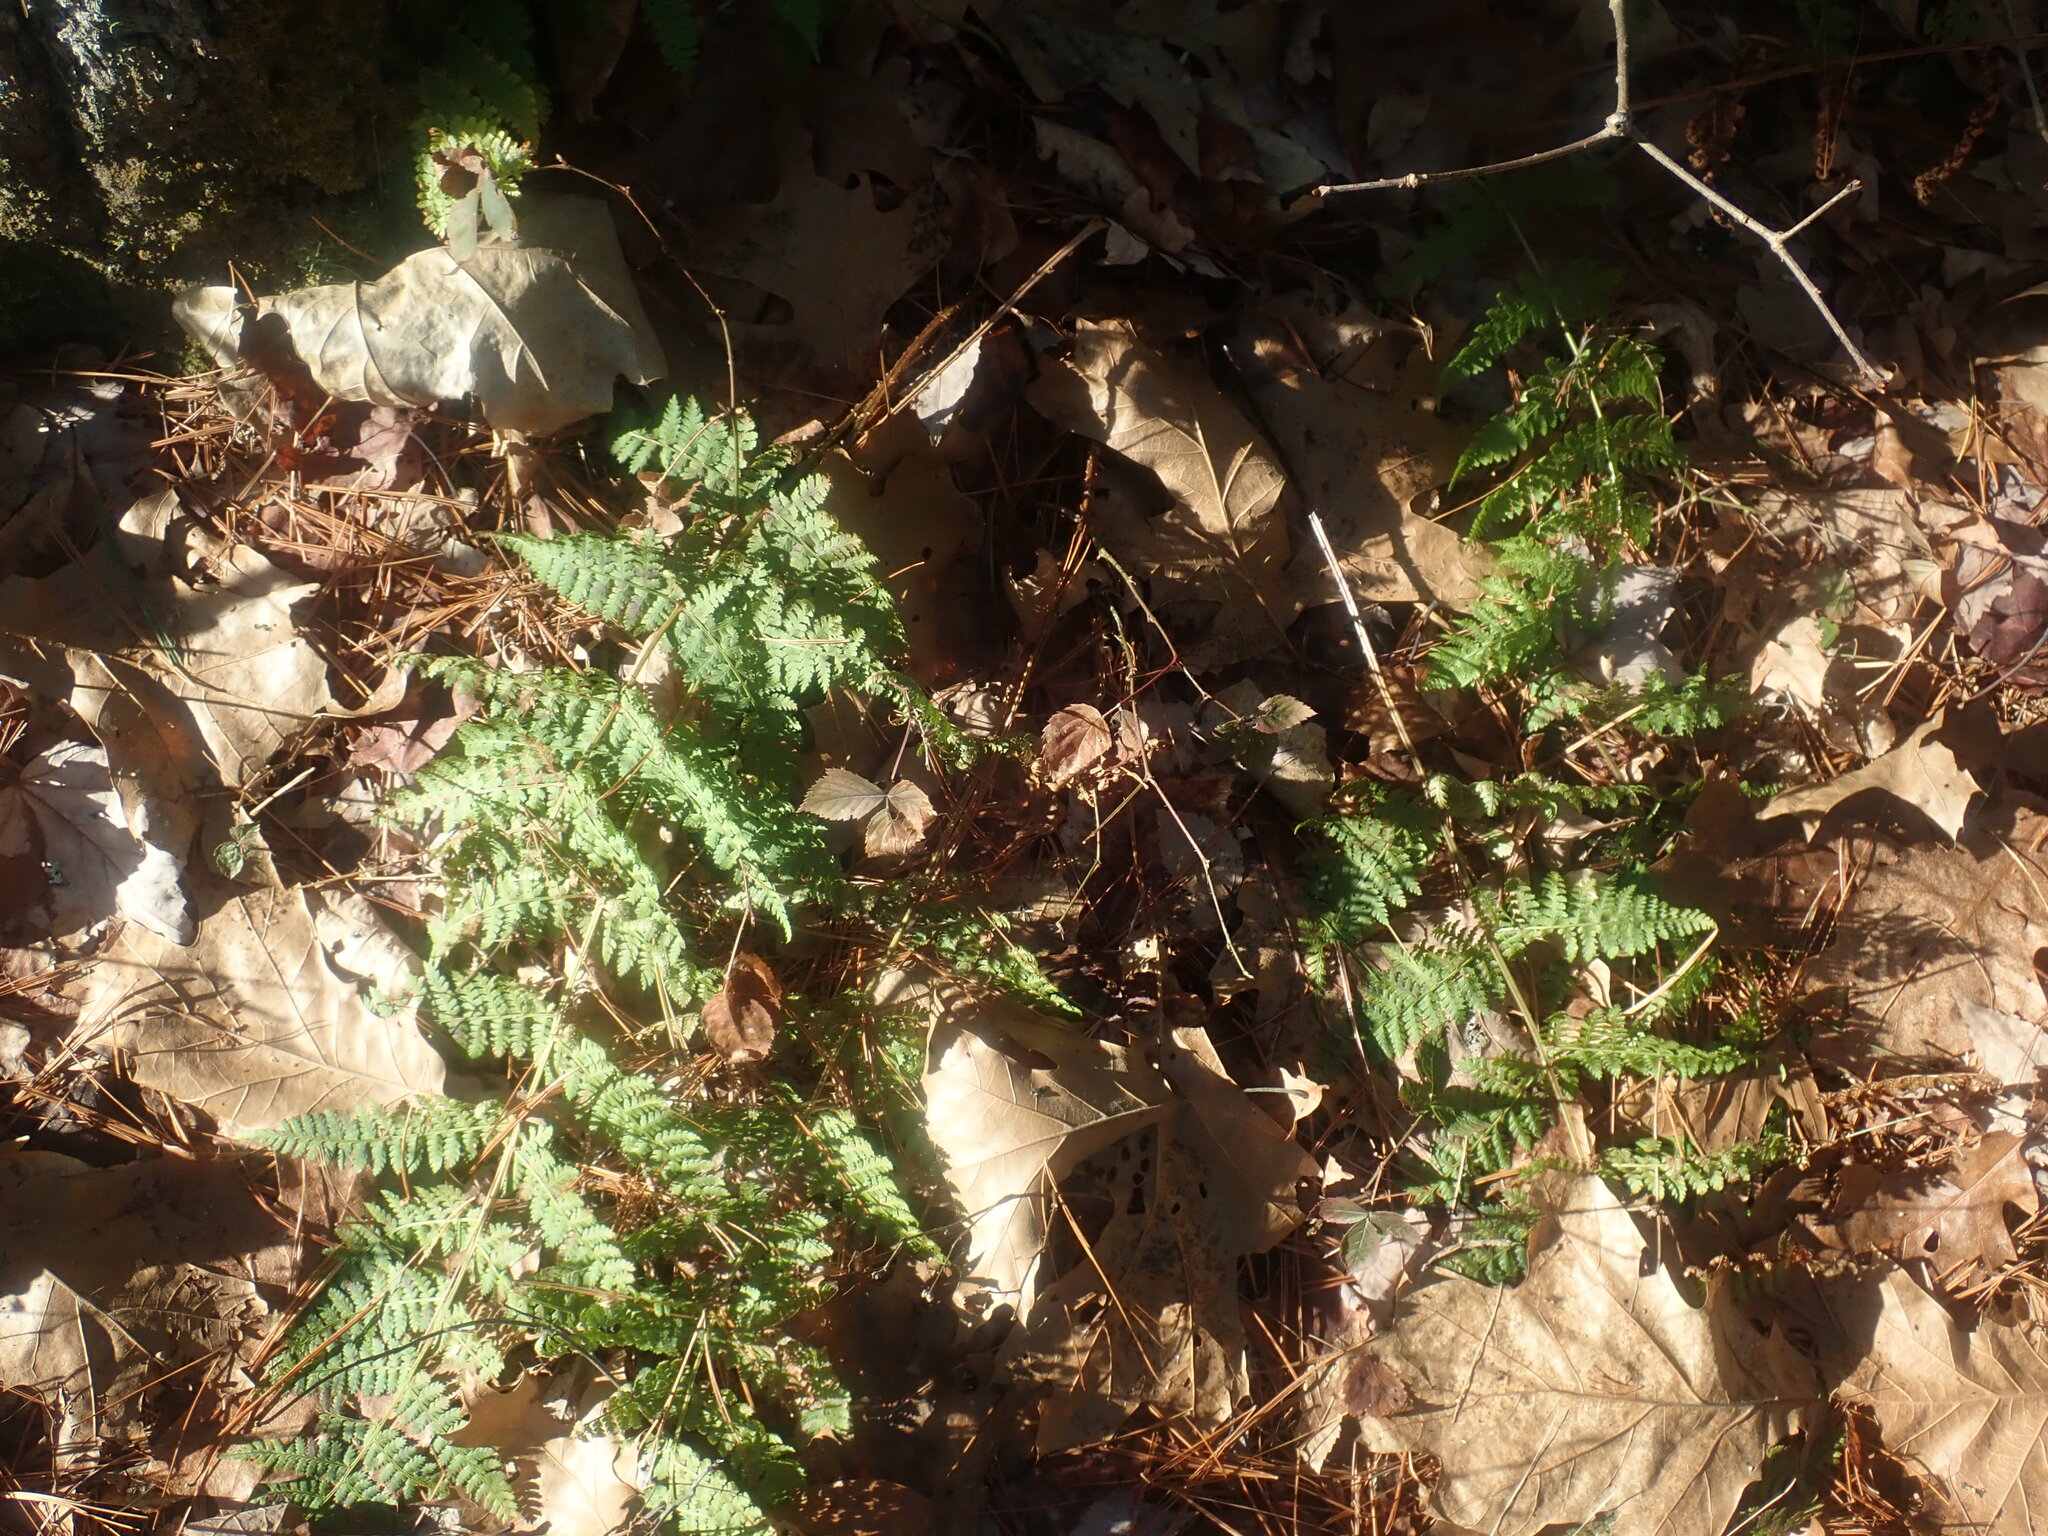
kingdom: Plantae
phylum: Tracheophyta
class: Polypodiopsida
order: Polypodiales
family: Dryopteridaceae
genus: Dryopteris
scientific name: Dryopteris intermedia
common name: Evergreen wood fern
